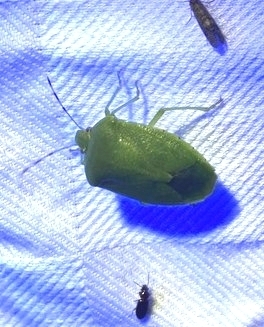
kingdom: Animalia
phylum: Arthropoda
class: Insecta
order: Hemiptera
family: Pentatomidae
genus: Chinavia
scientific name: Chinavia hilaris
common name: Green stink bug
